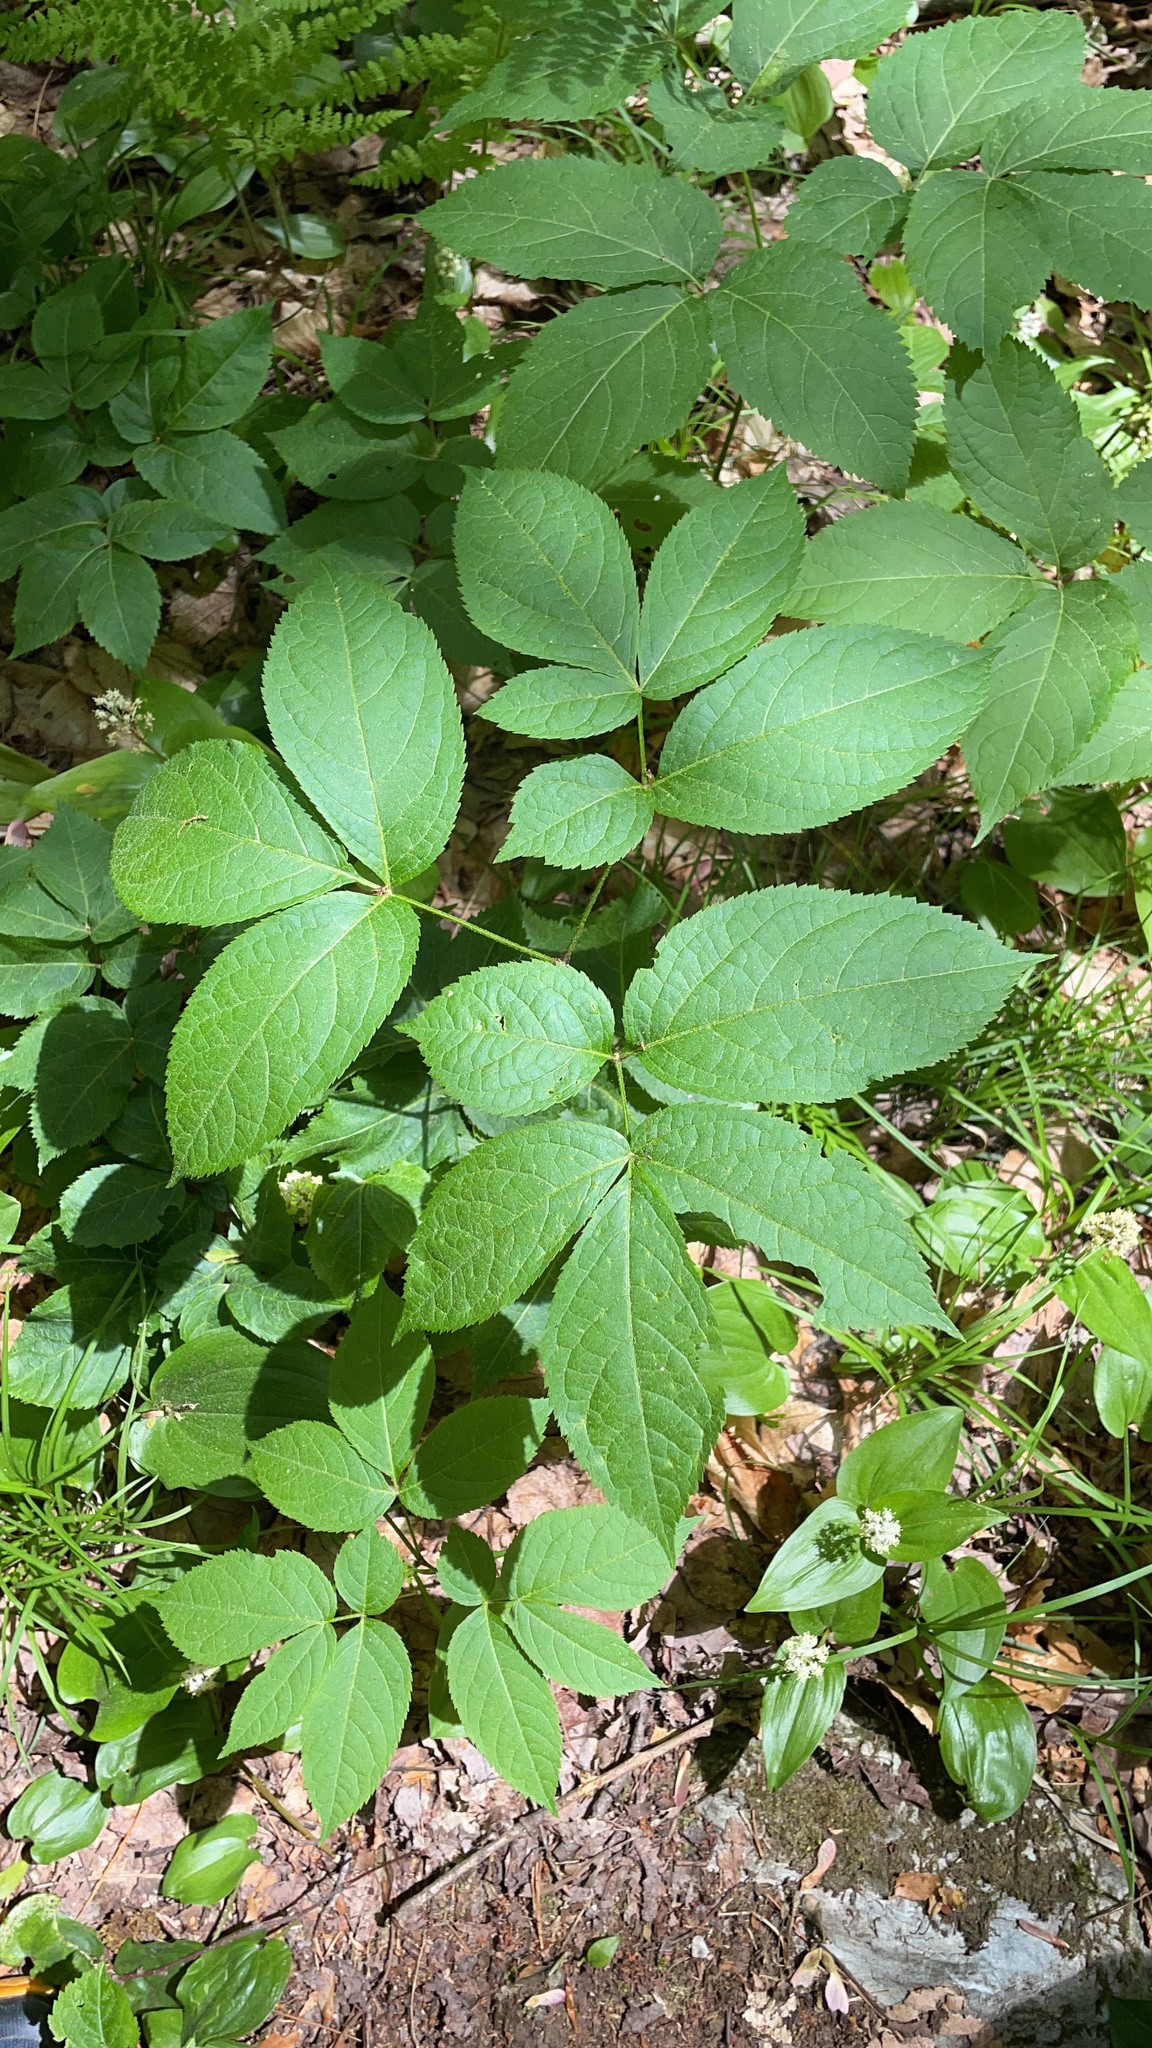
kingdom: Plantae
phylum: Tracheophyta
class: Magnoliopsida
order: Apiales
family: Araliaceae
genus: Aralia
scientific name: Aralia nudicaulis
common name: Wild sarsaparilla
